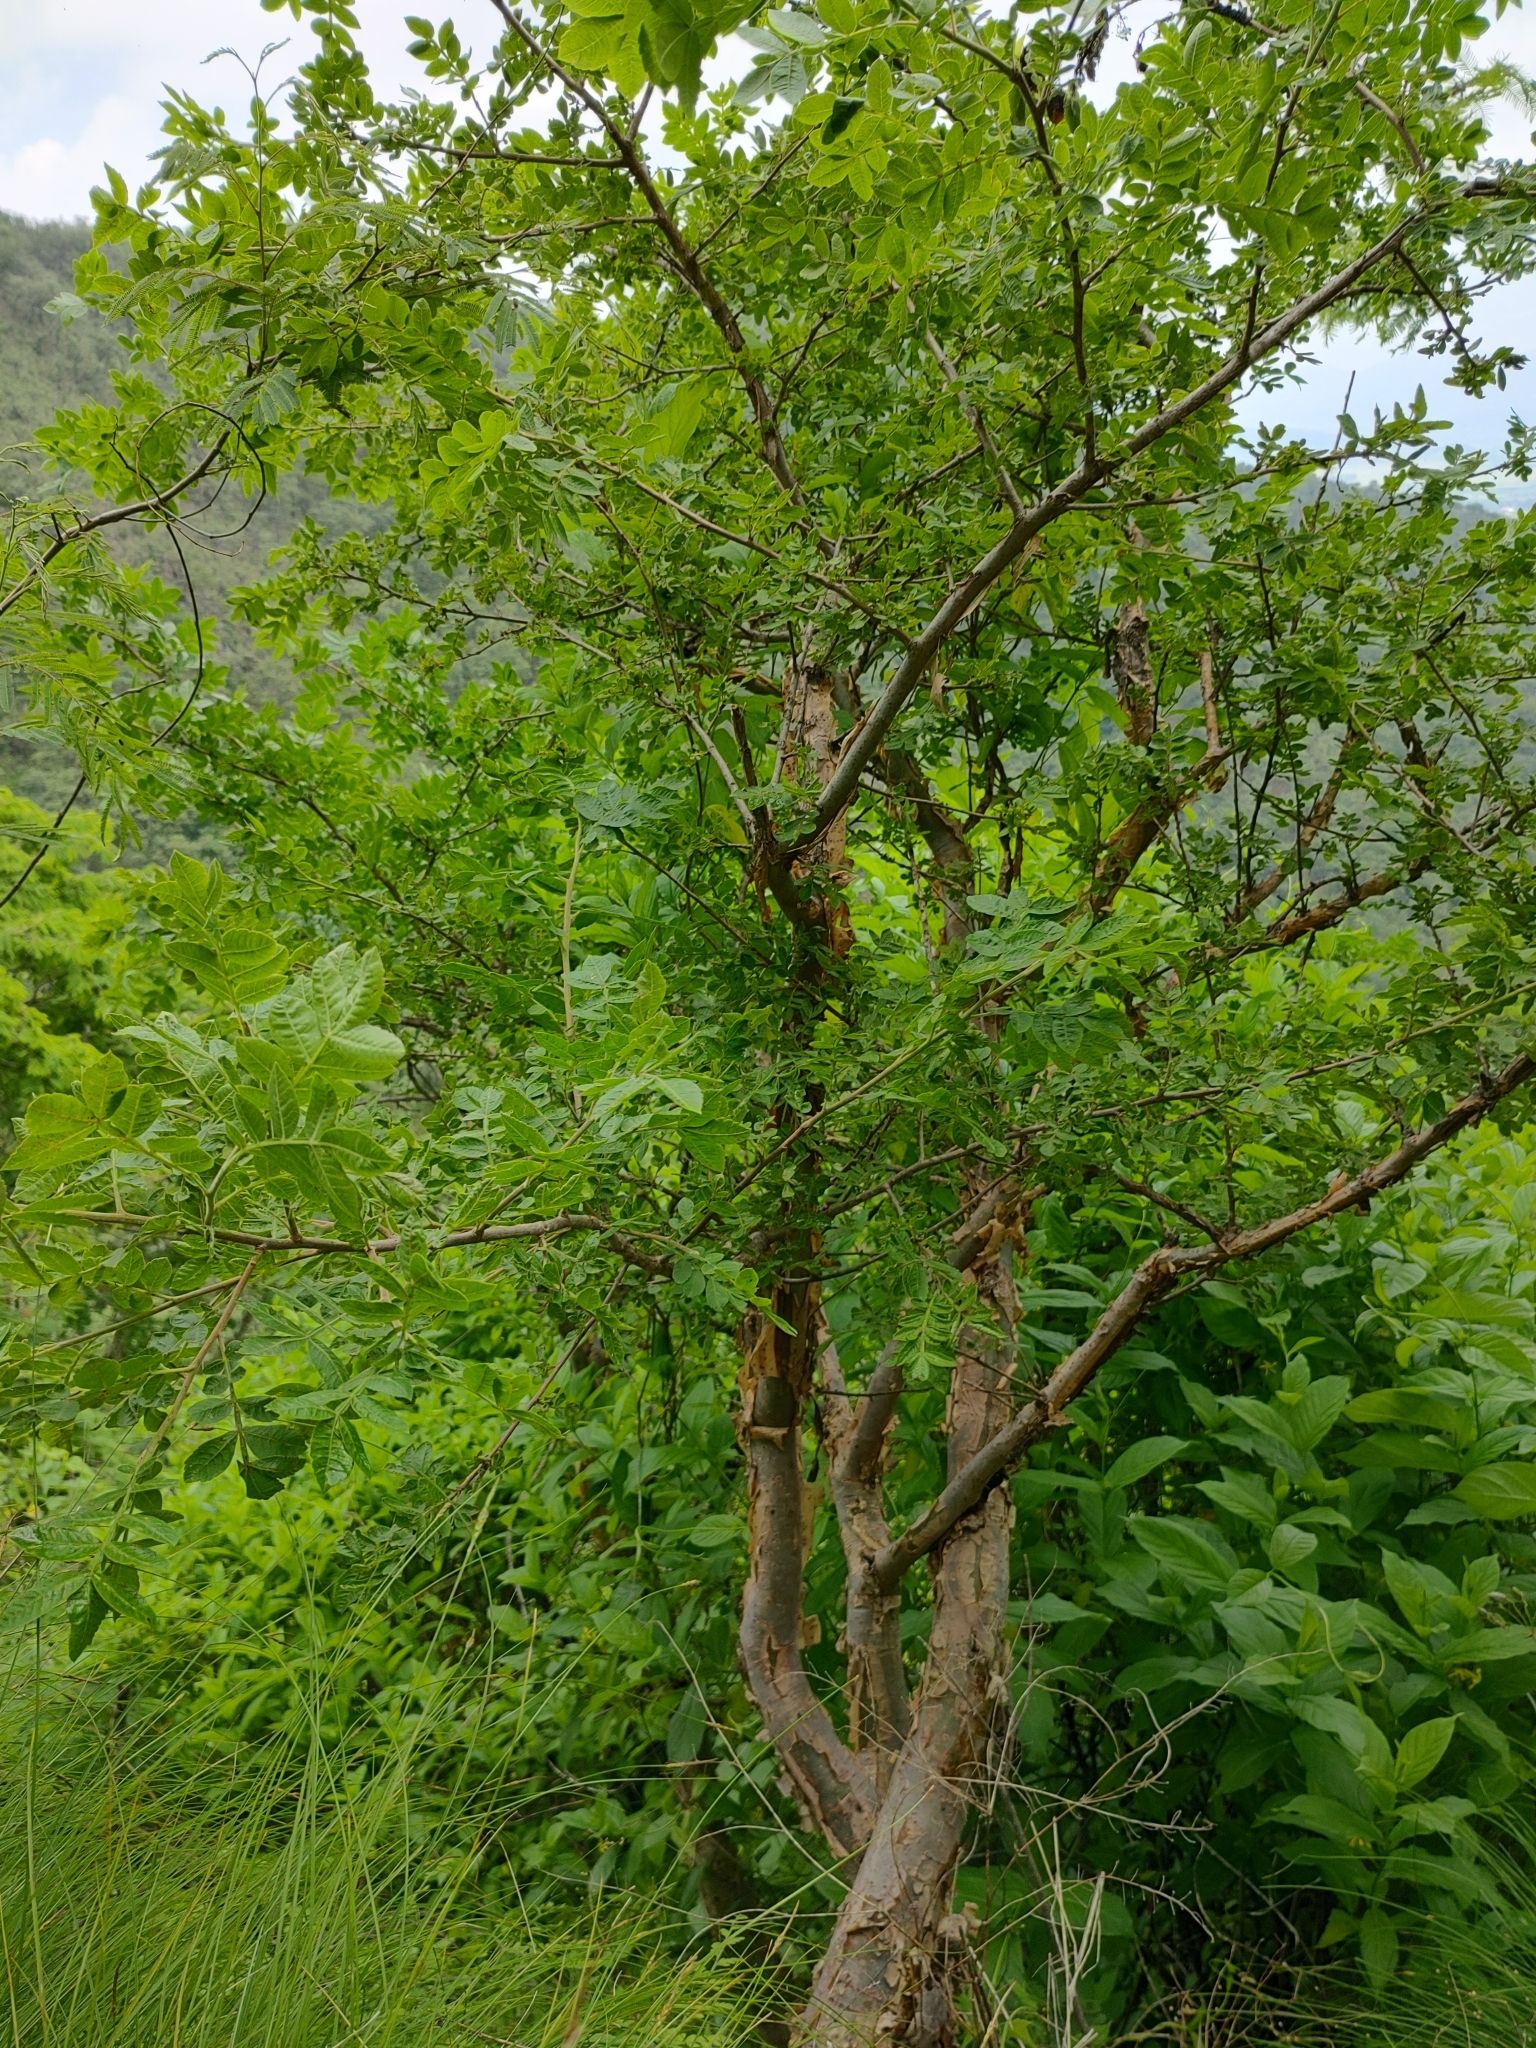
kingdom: Plantae
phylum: Tracheophyta
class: Magnoliopsida
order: Sapindales
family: Burseraceae
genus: Bursera
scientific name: Bursera ariensis
